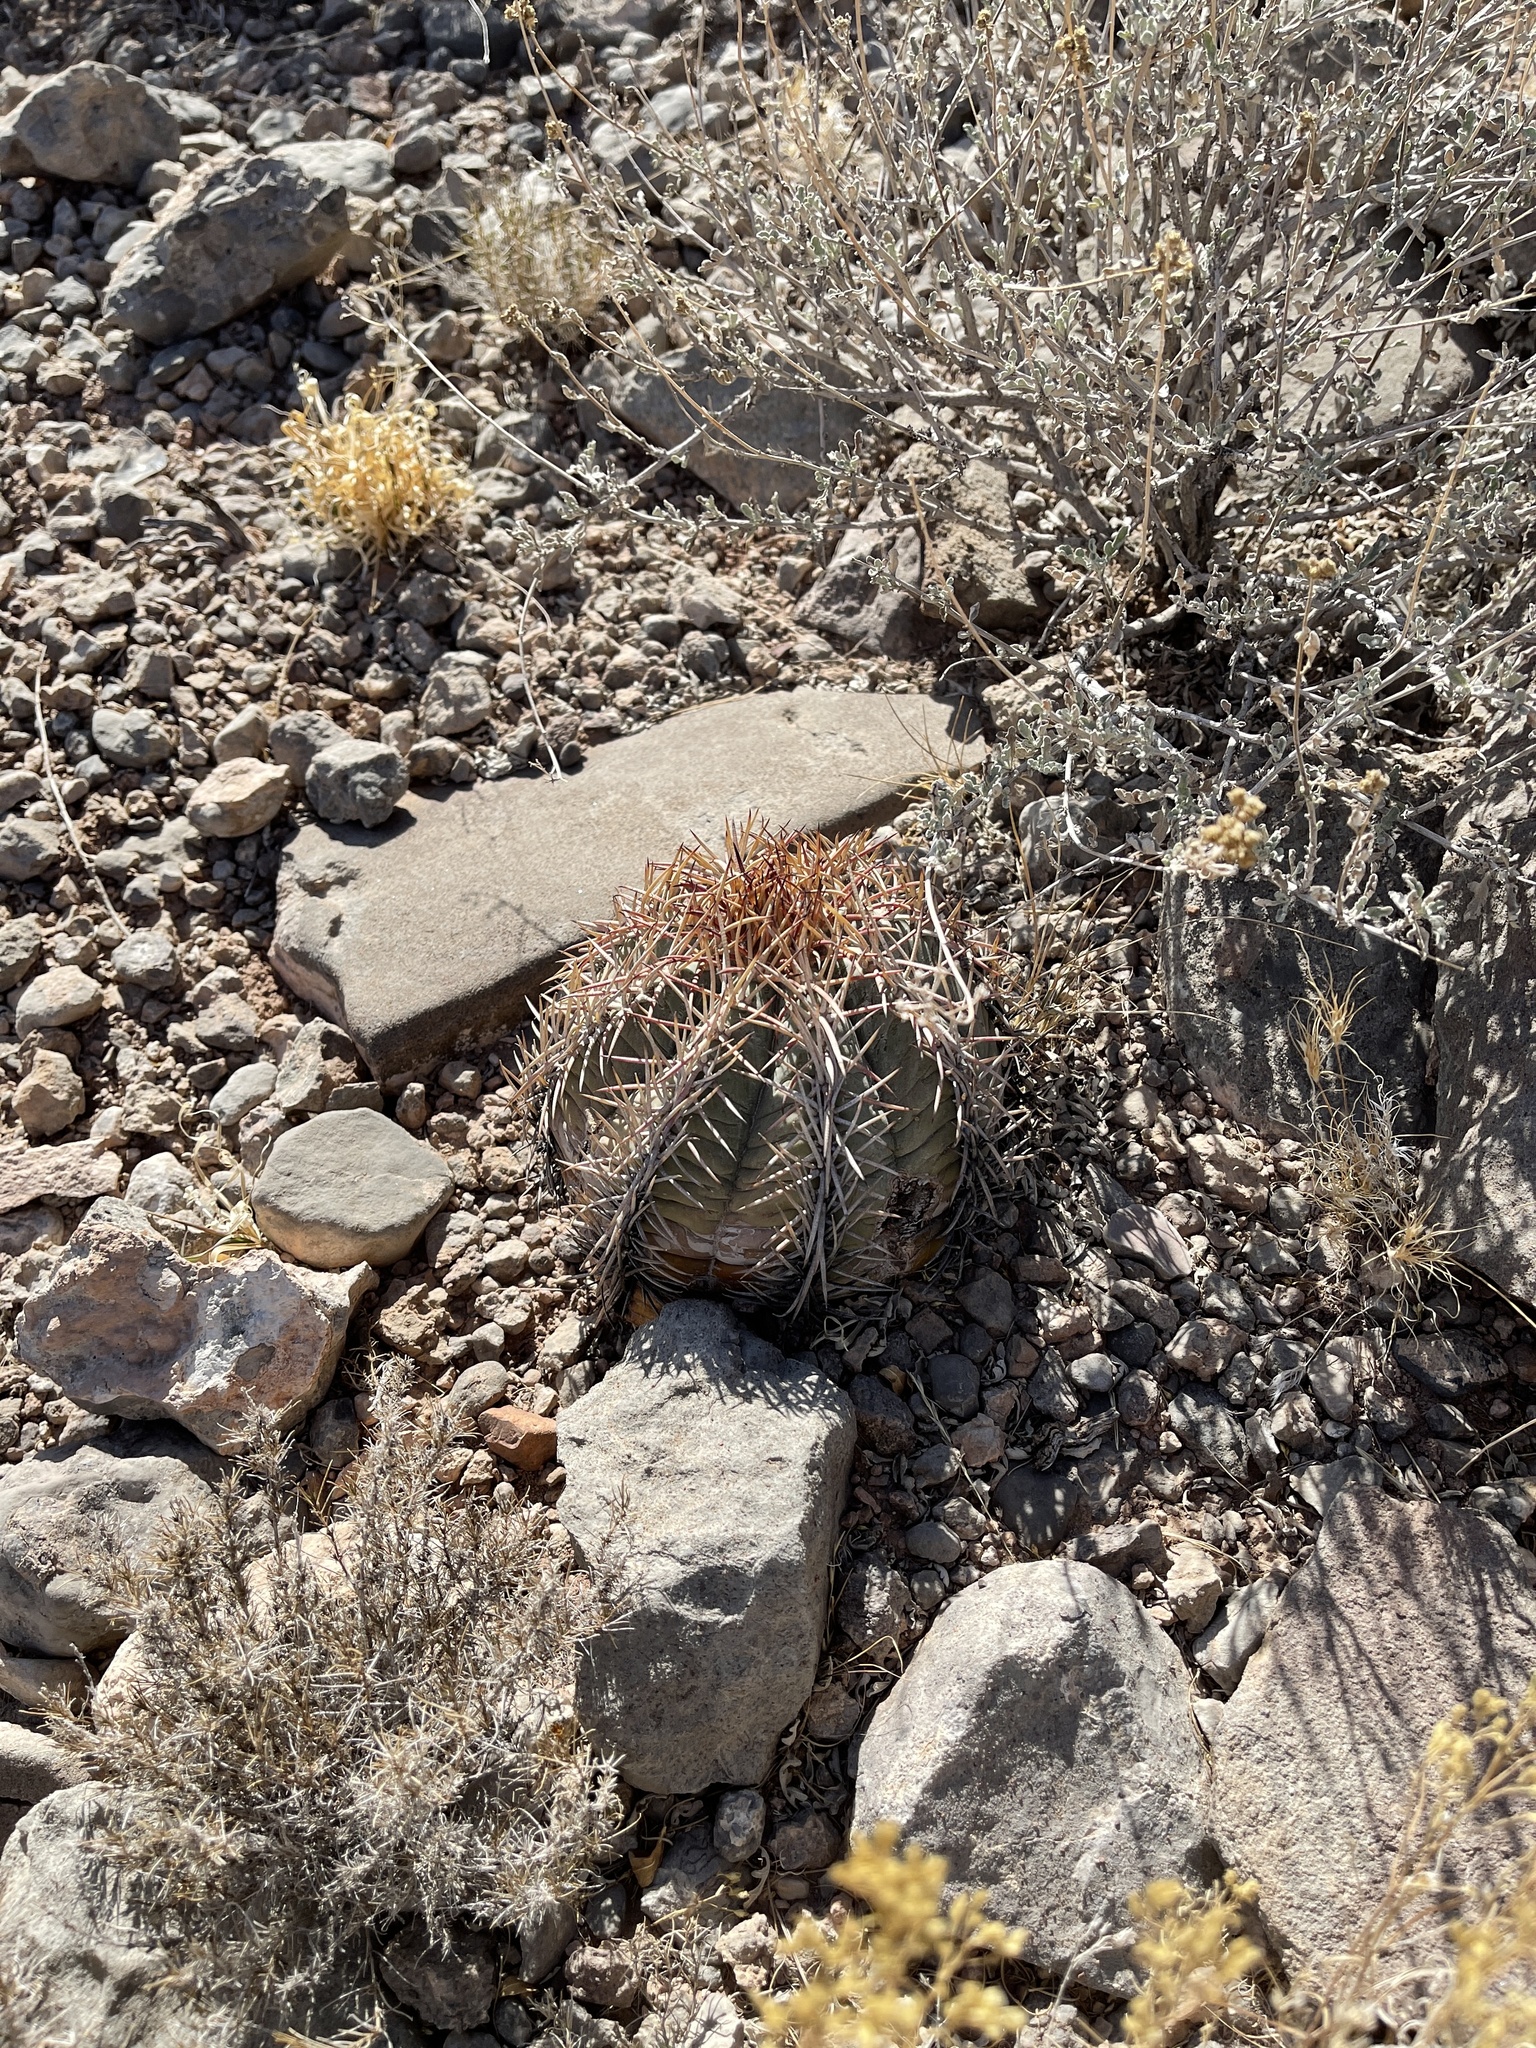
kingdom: Plantae
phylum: Tracheophyta
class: Magnoliopsida
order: Caryophyllales
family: Cactaceae
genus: Echinocactus
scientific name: Echinocactus horizonthalonius
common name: Devilshead
